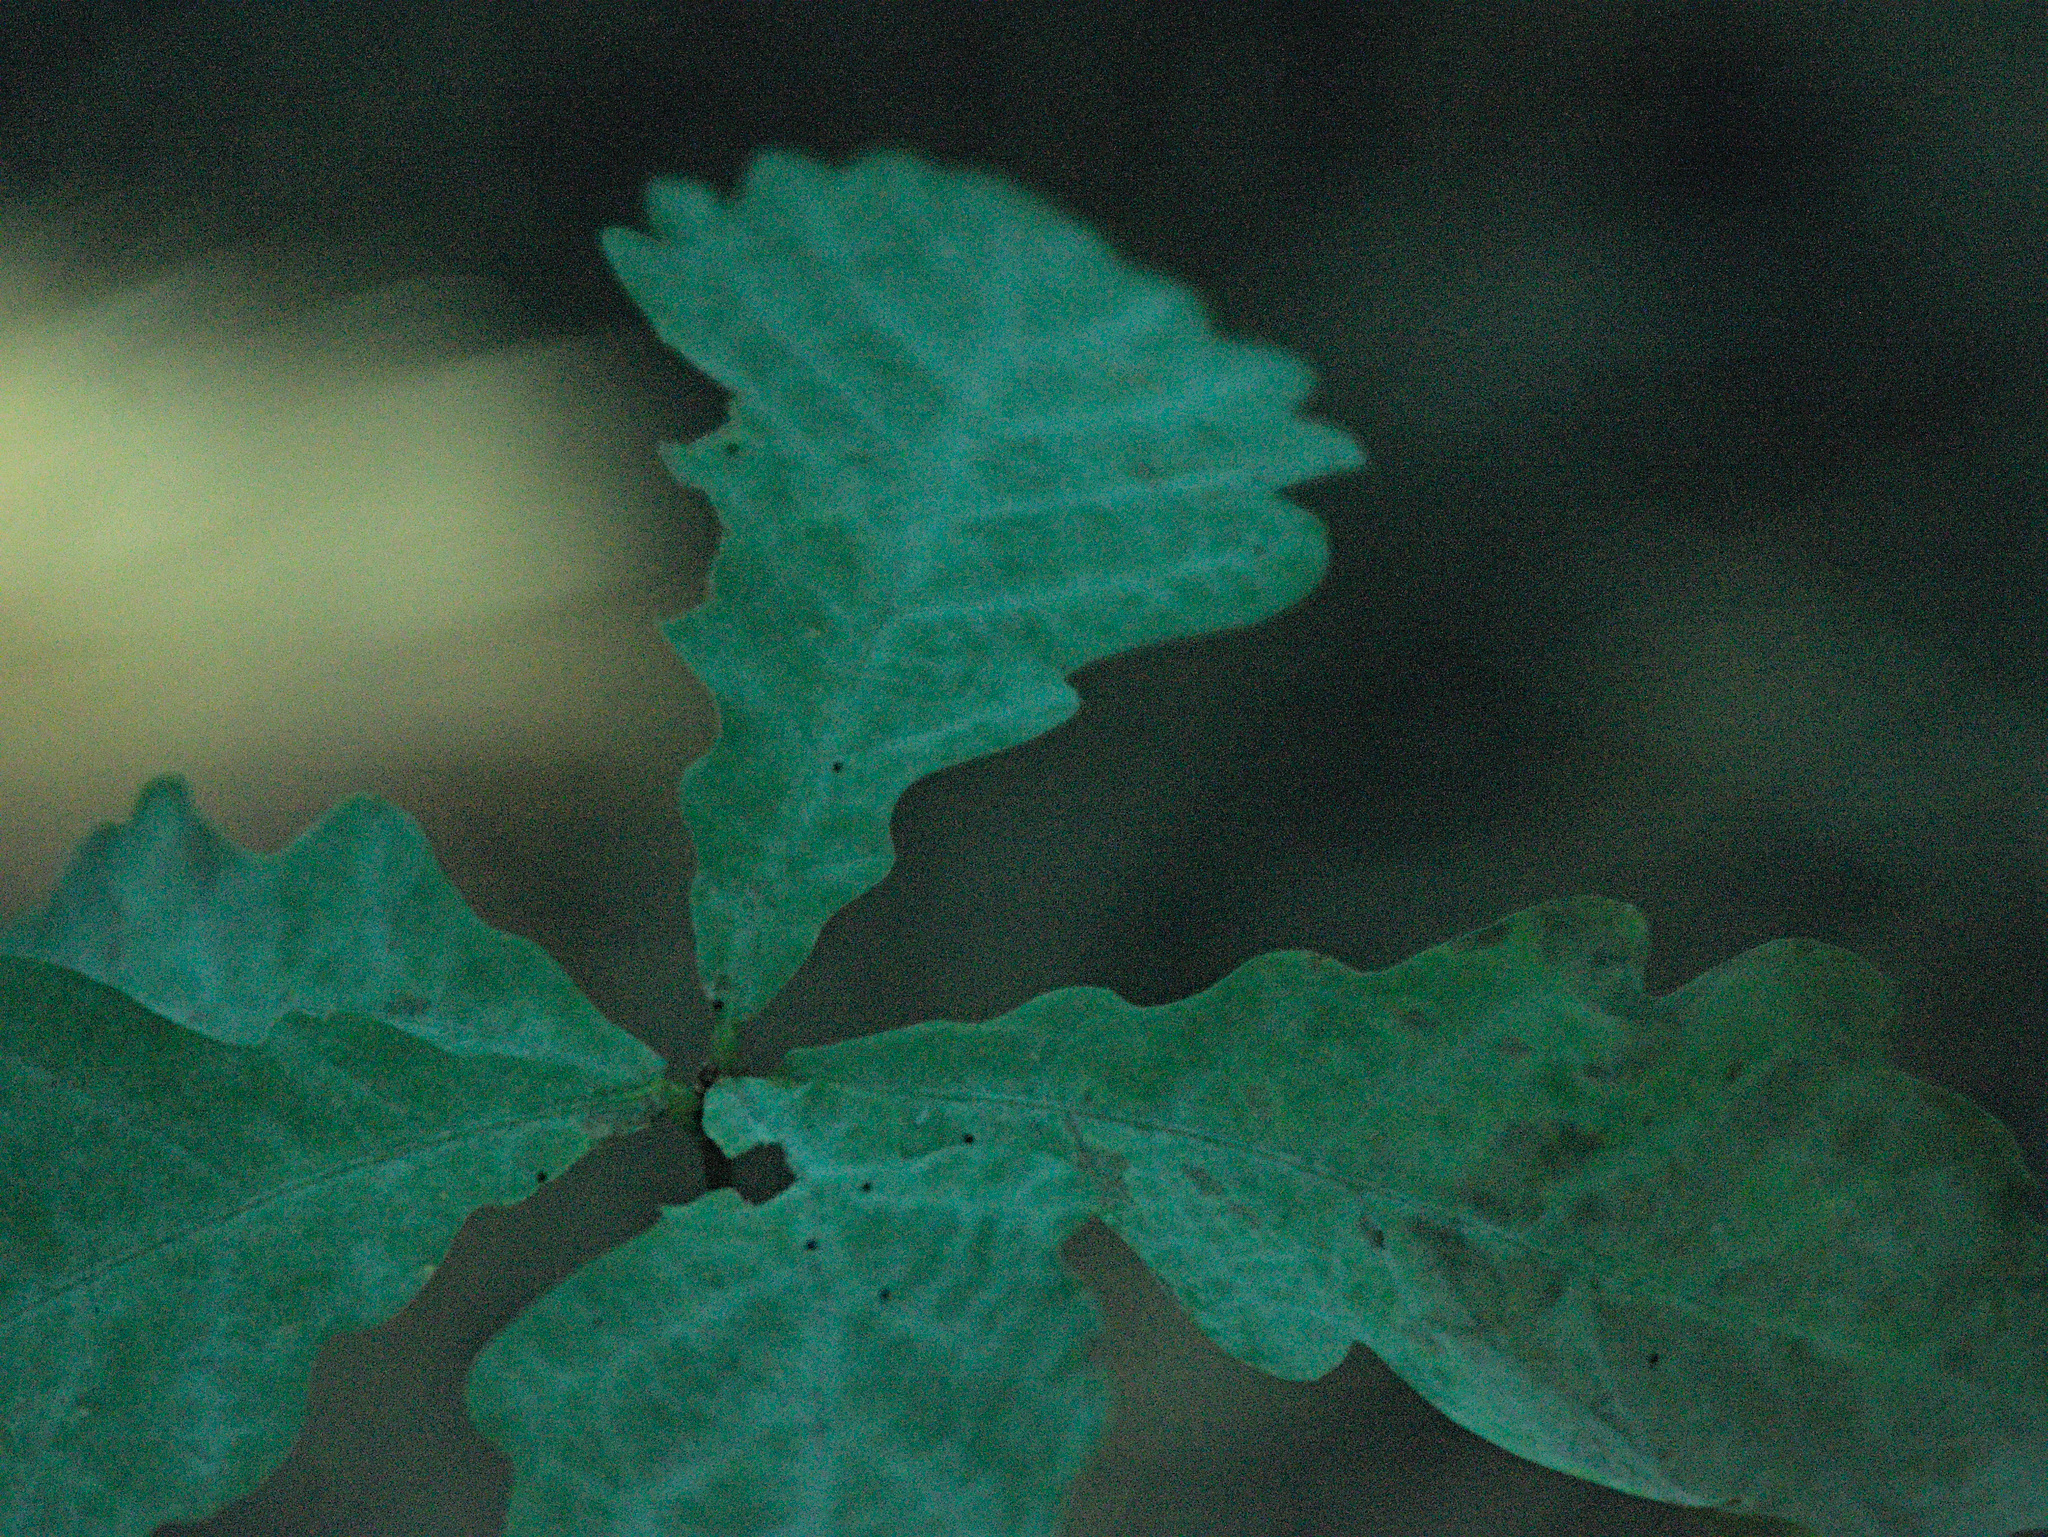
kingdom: Plantae
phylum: Tracheophyta
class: Magnoliopsida
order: Fagales
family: Fagaceae
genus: Quercus
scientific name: Quercus robur
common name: Pedunculate oak
